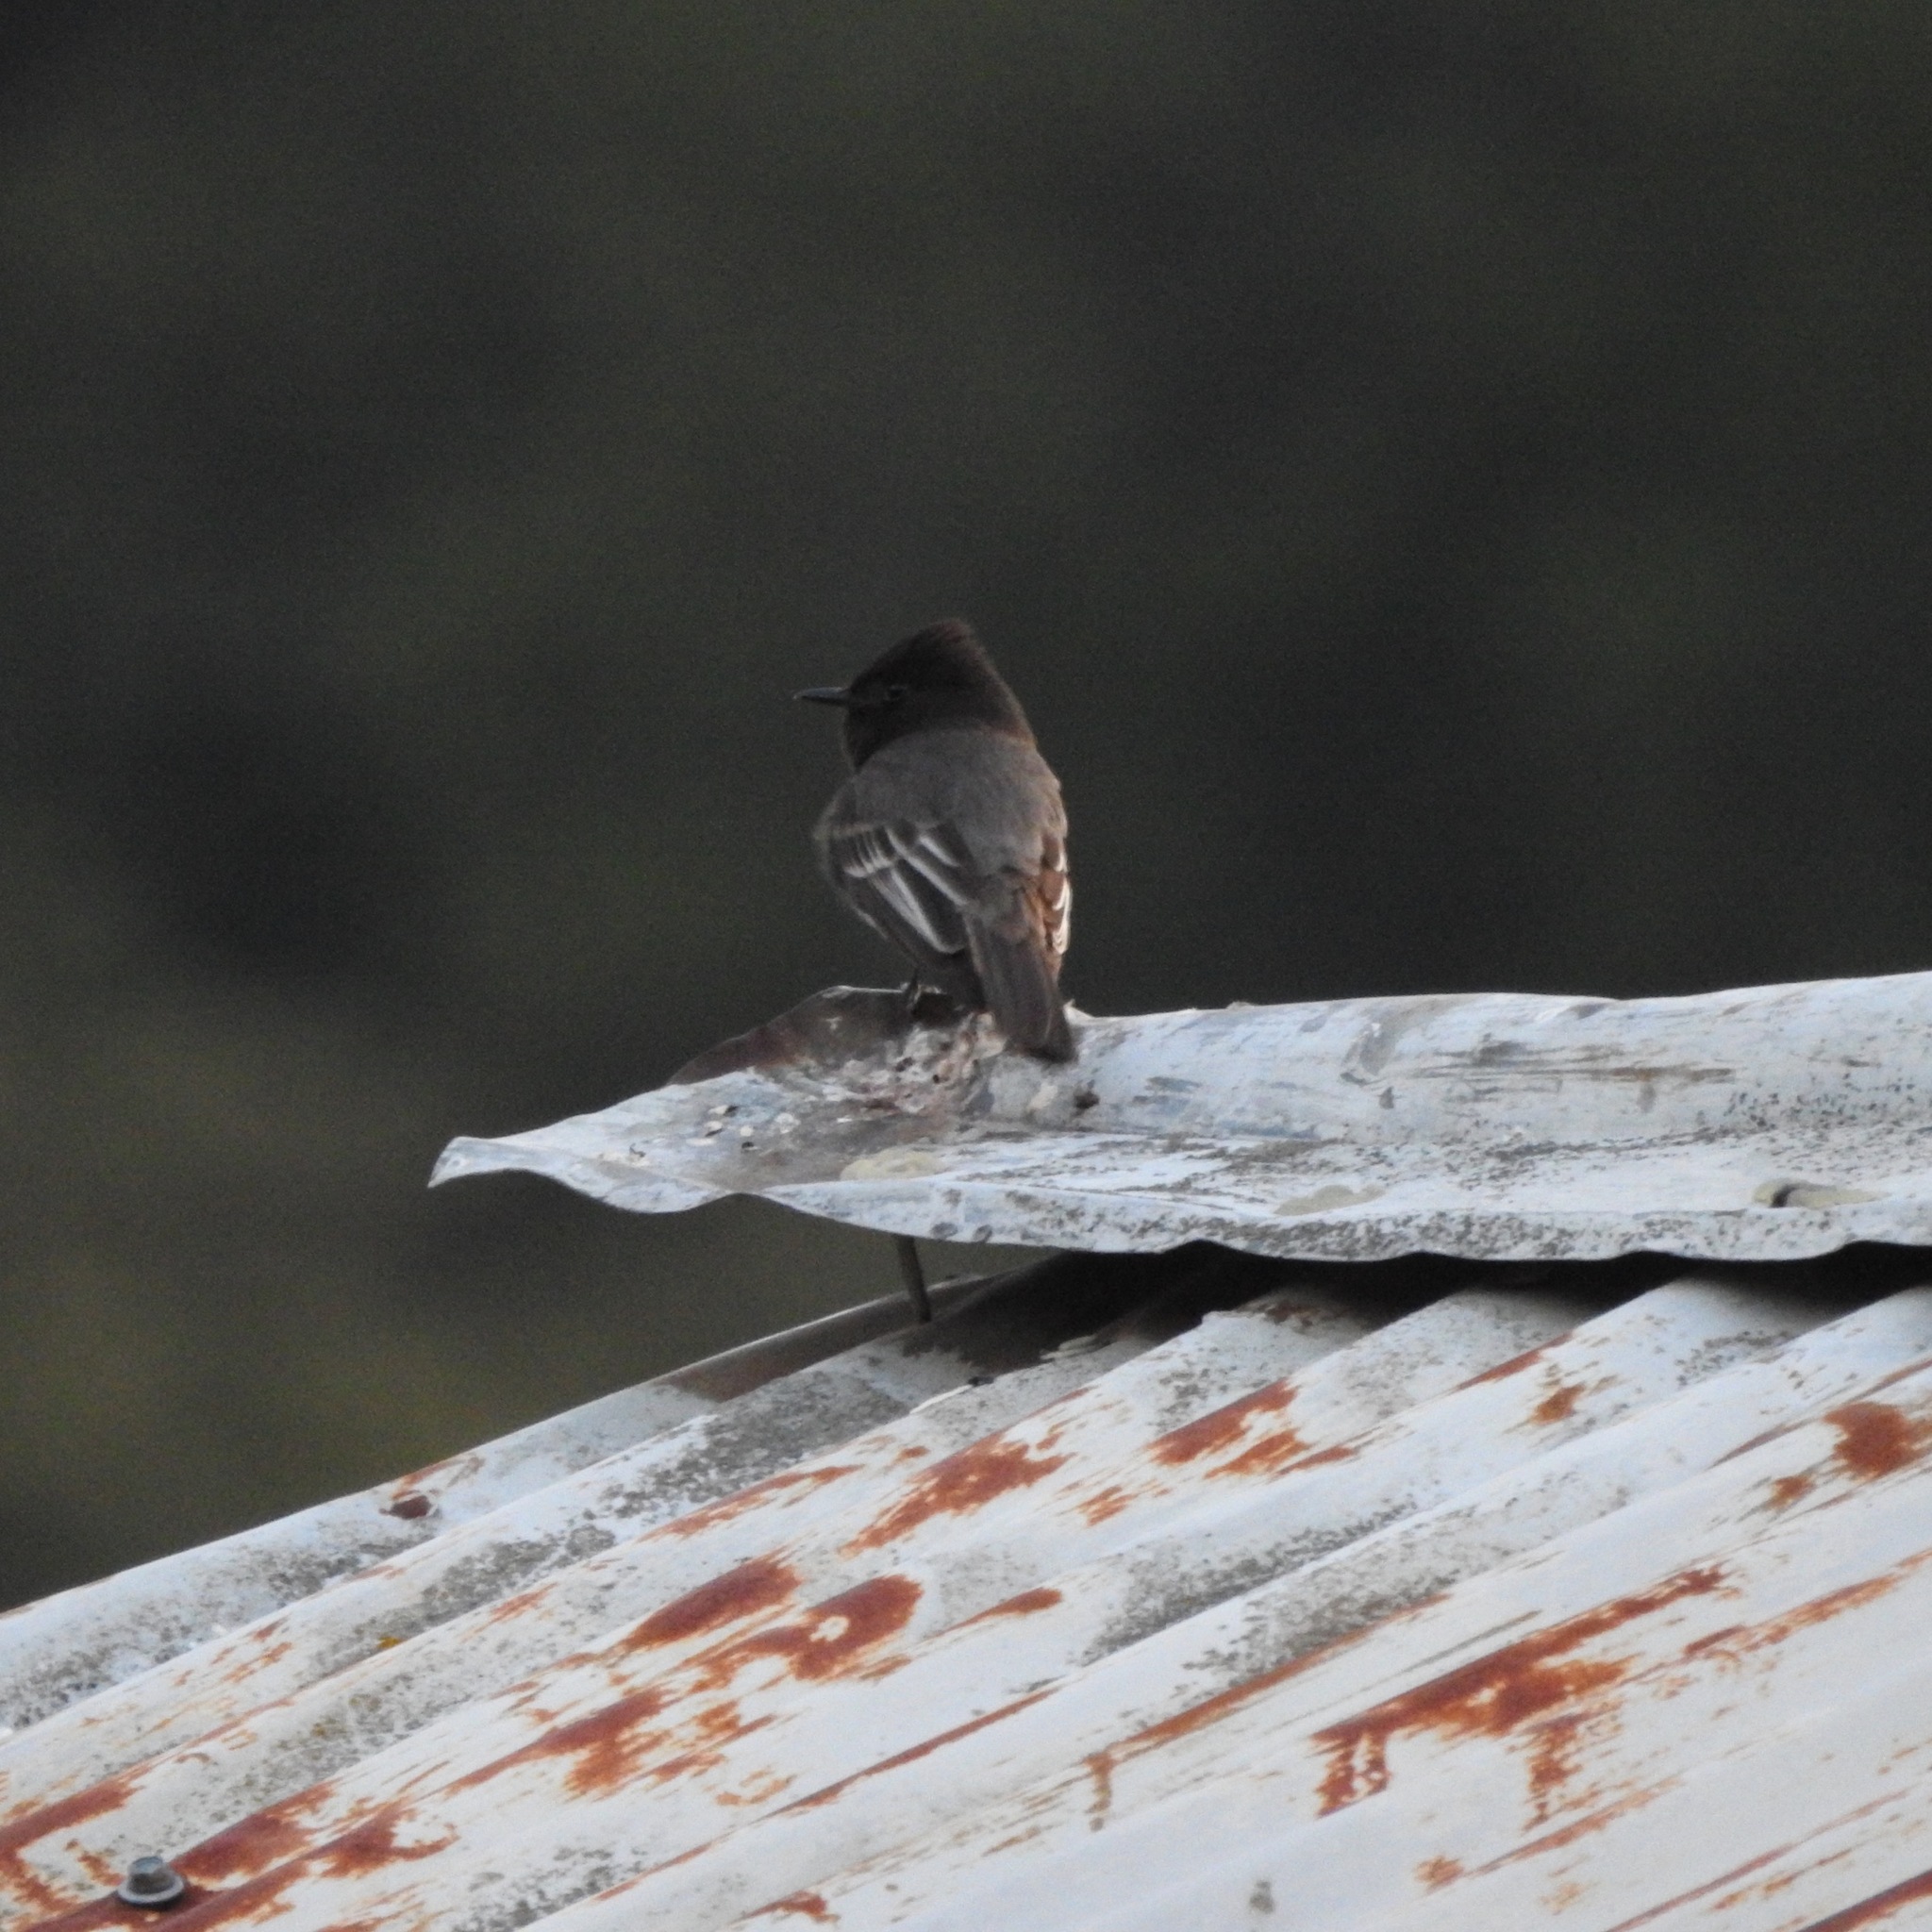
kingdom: Animalia
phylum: Chordata
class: Aves
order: Passeriformes
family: Tyrannidae
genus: Sayornis
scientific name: Sayornis nigricans
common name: Black phoebe
